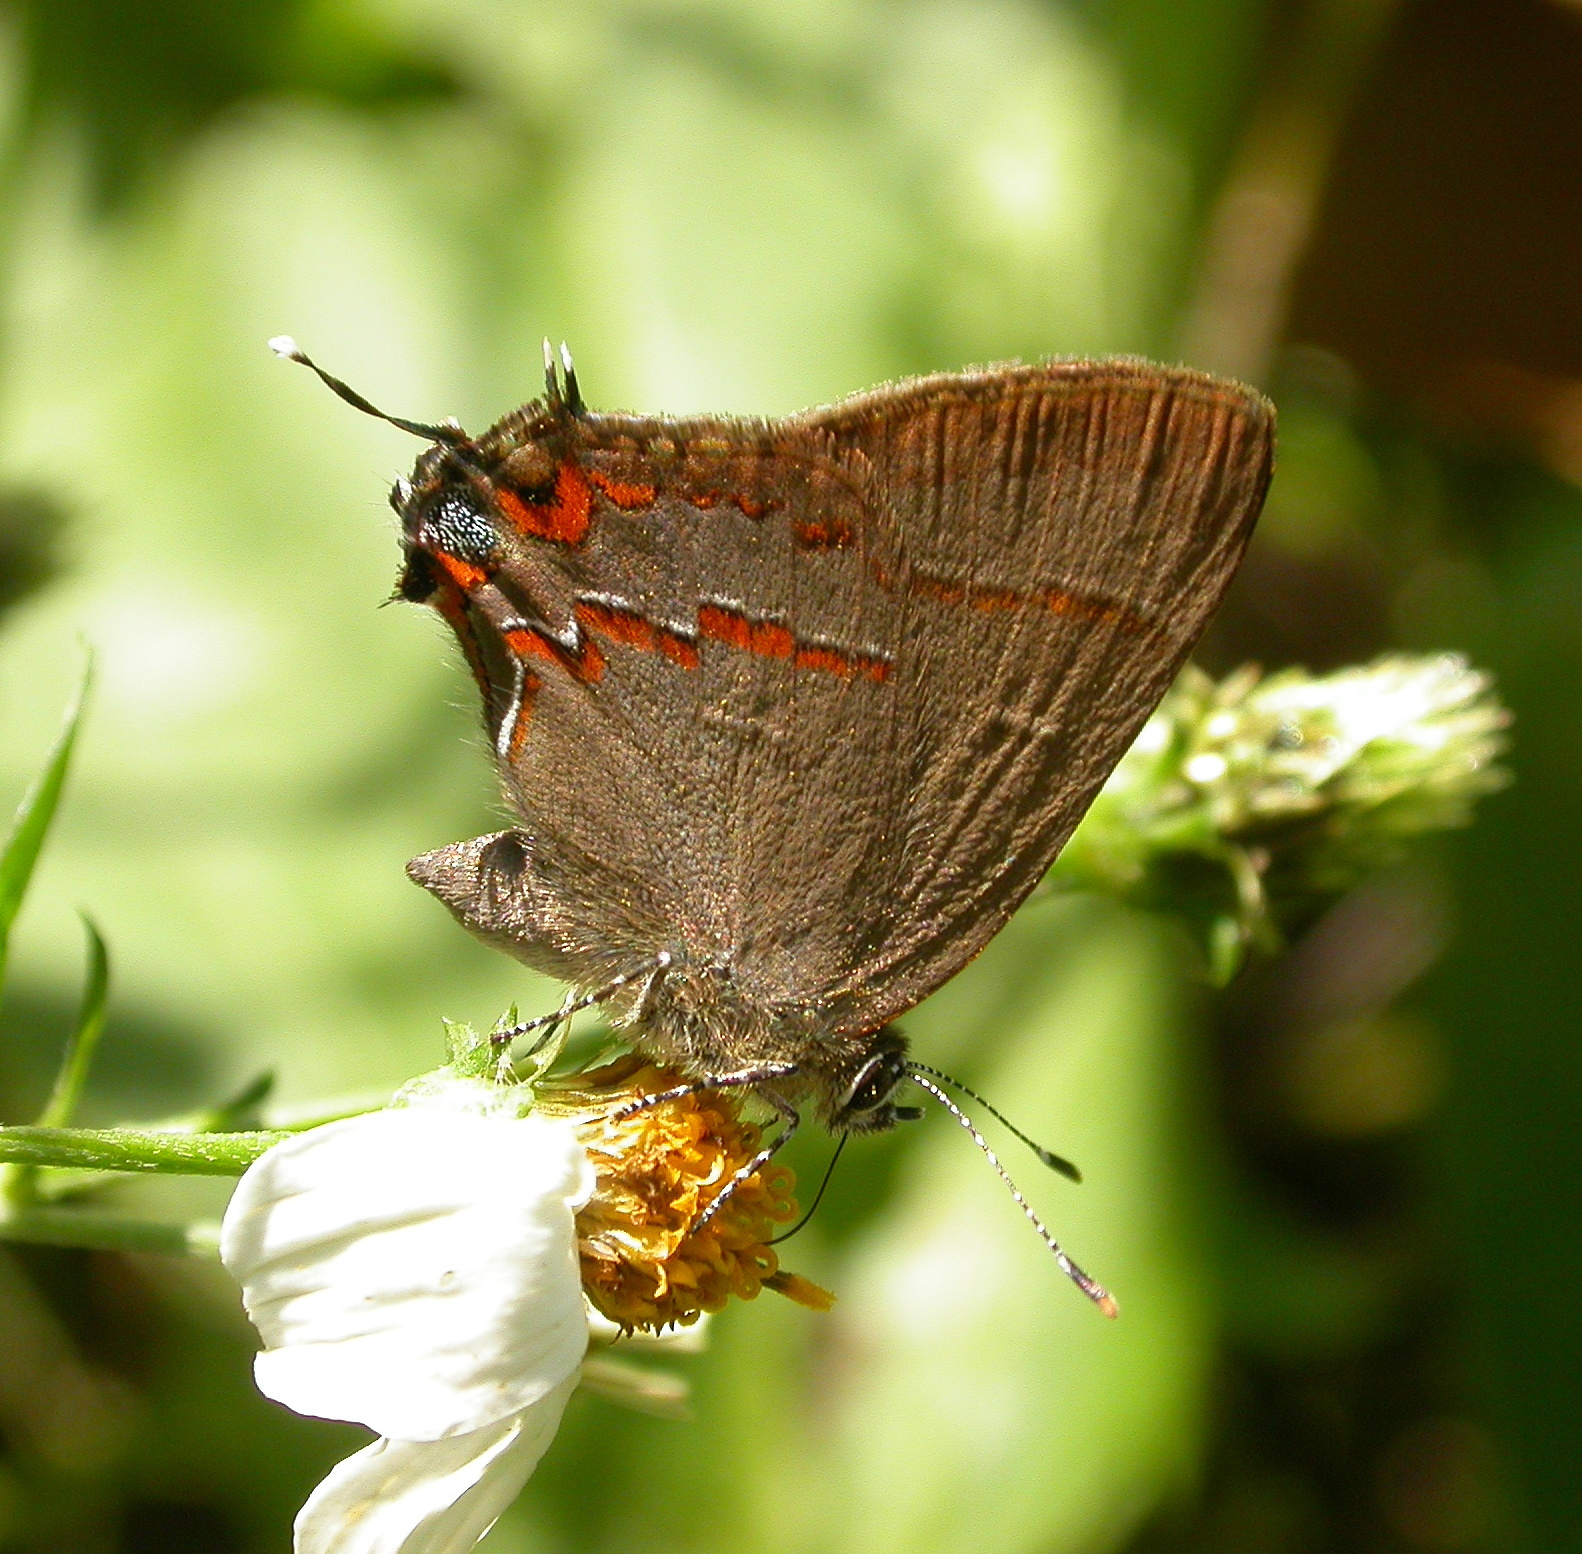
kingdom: Animalia
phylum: Arthropoda
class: Insecta
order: Lepidoptera
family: Lycaenidae
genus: Electrostrymon
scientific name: Electrostrymon
